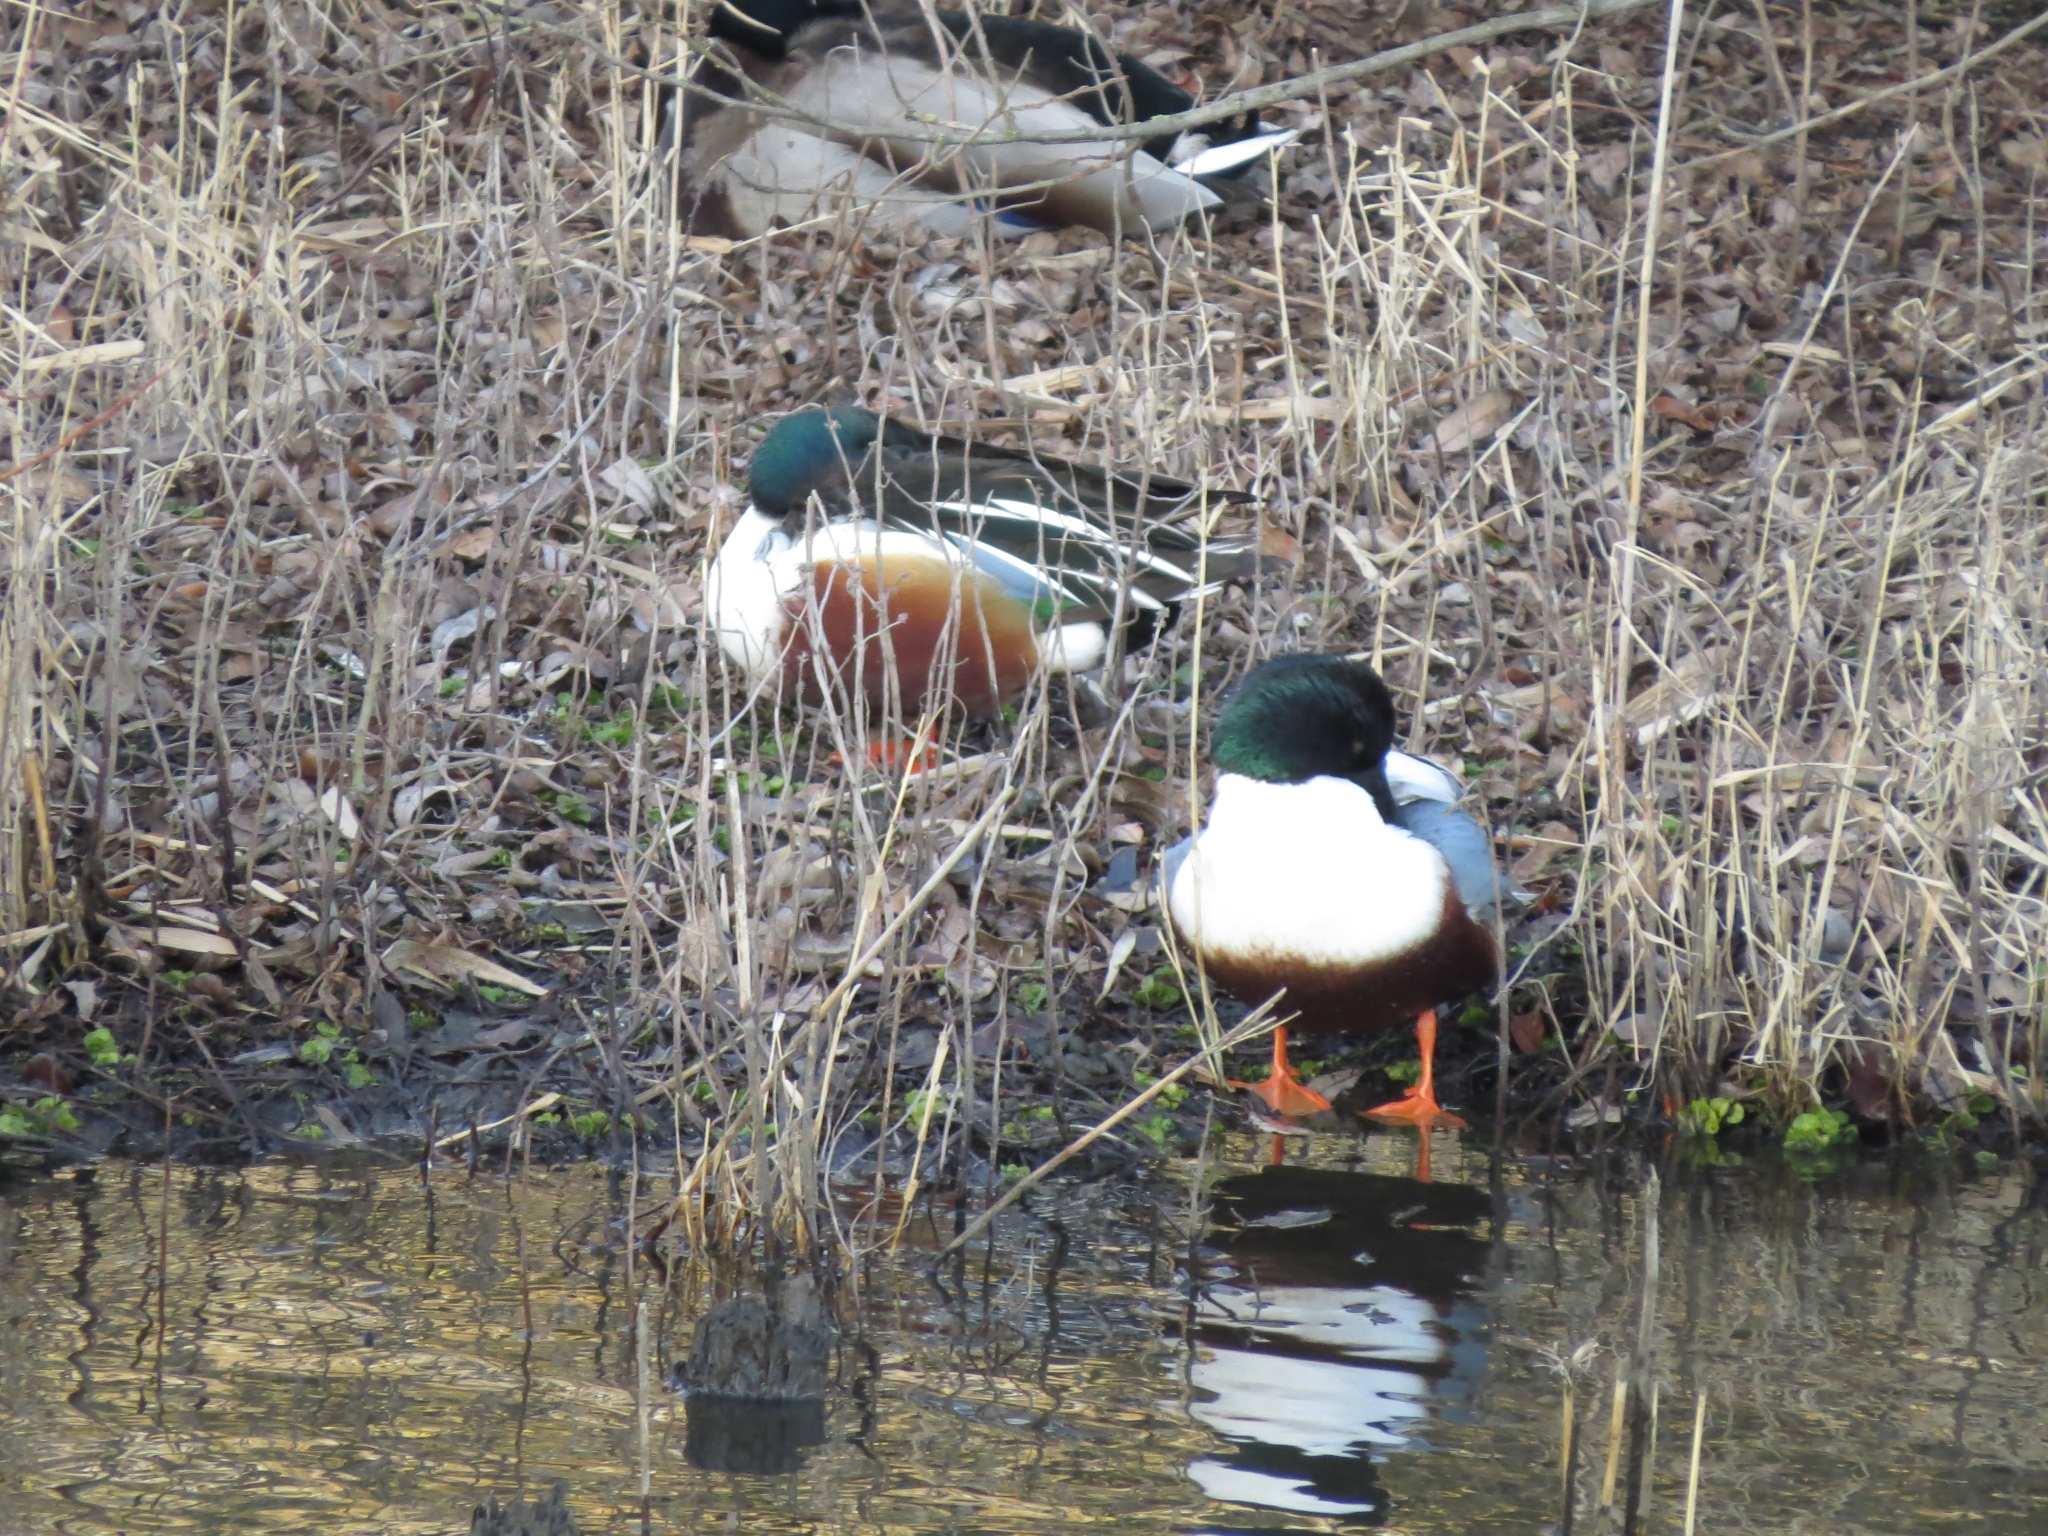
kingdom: Animalia
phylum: Chordata
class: Aves
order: Anseriformes
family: Anatidae
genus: Spatula
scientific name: Spatula clypeata
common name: Northern shoveler
